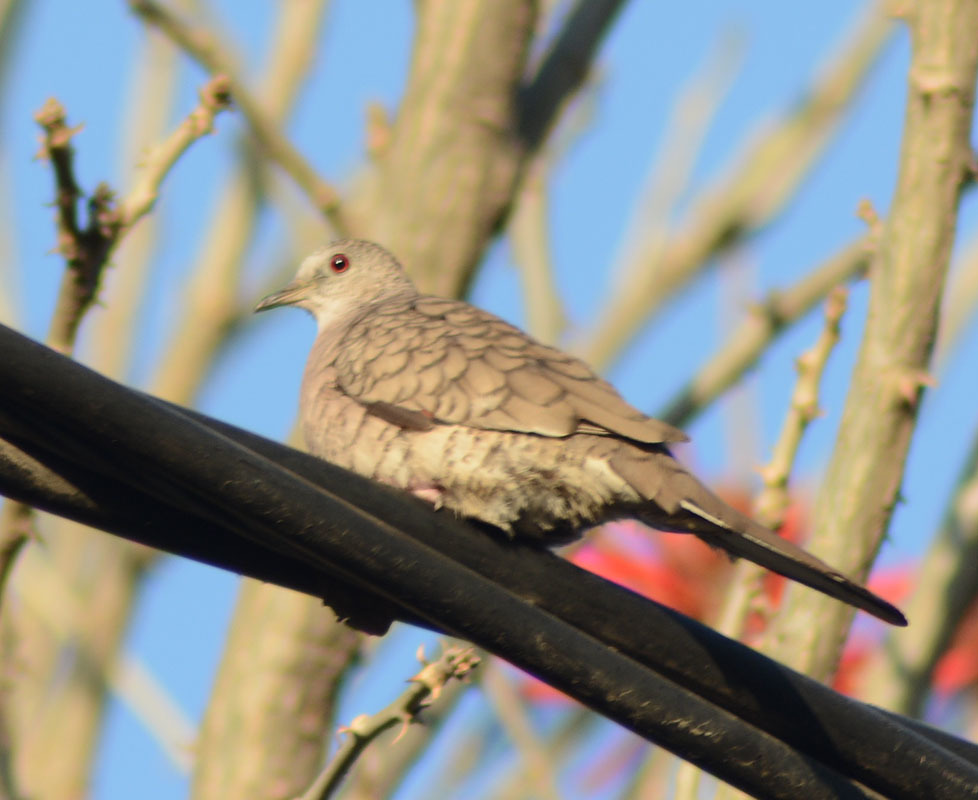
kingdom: Animalia
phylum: Chordata
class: Aves
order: Columbiformes
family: Columbidae
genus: Columbina
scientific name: Columbina inca
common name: Inca dove
